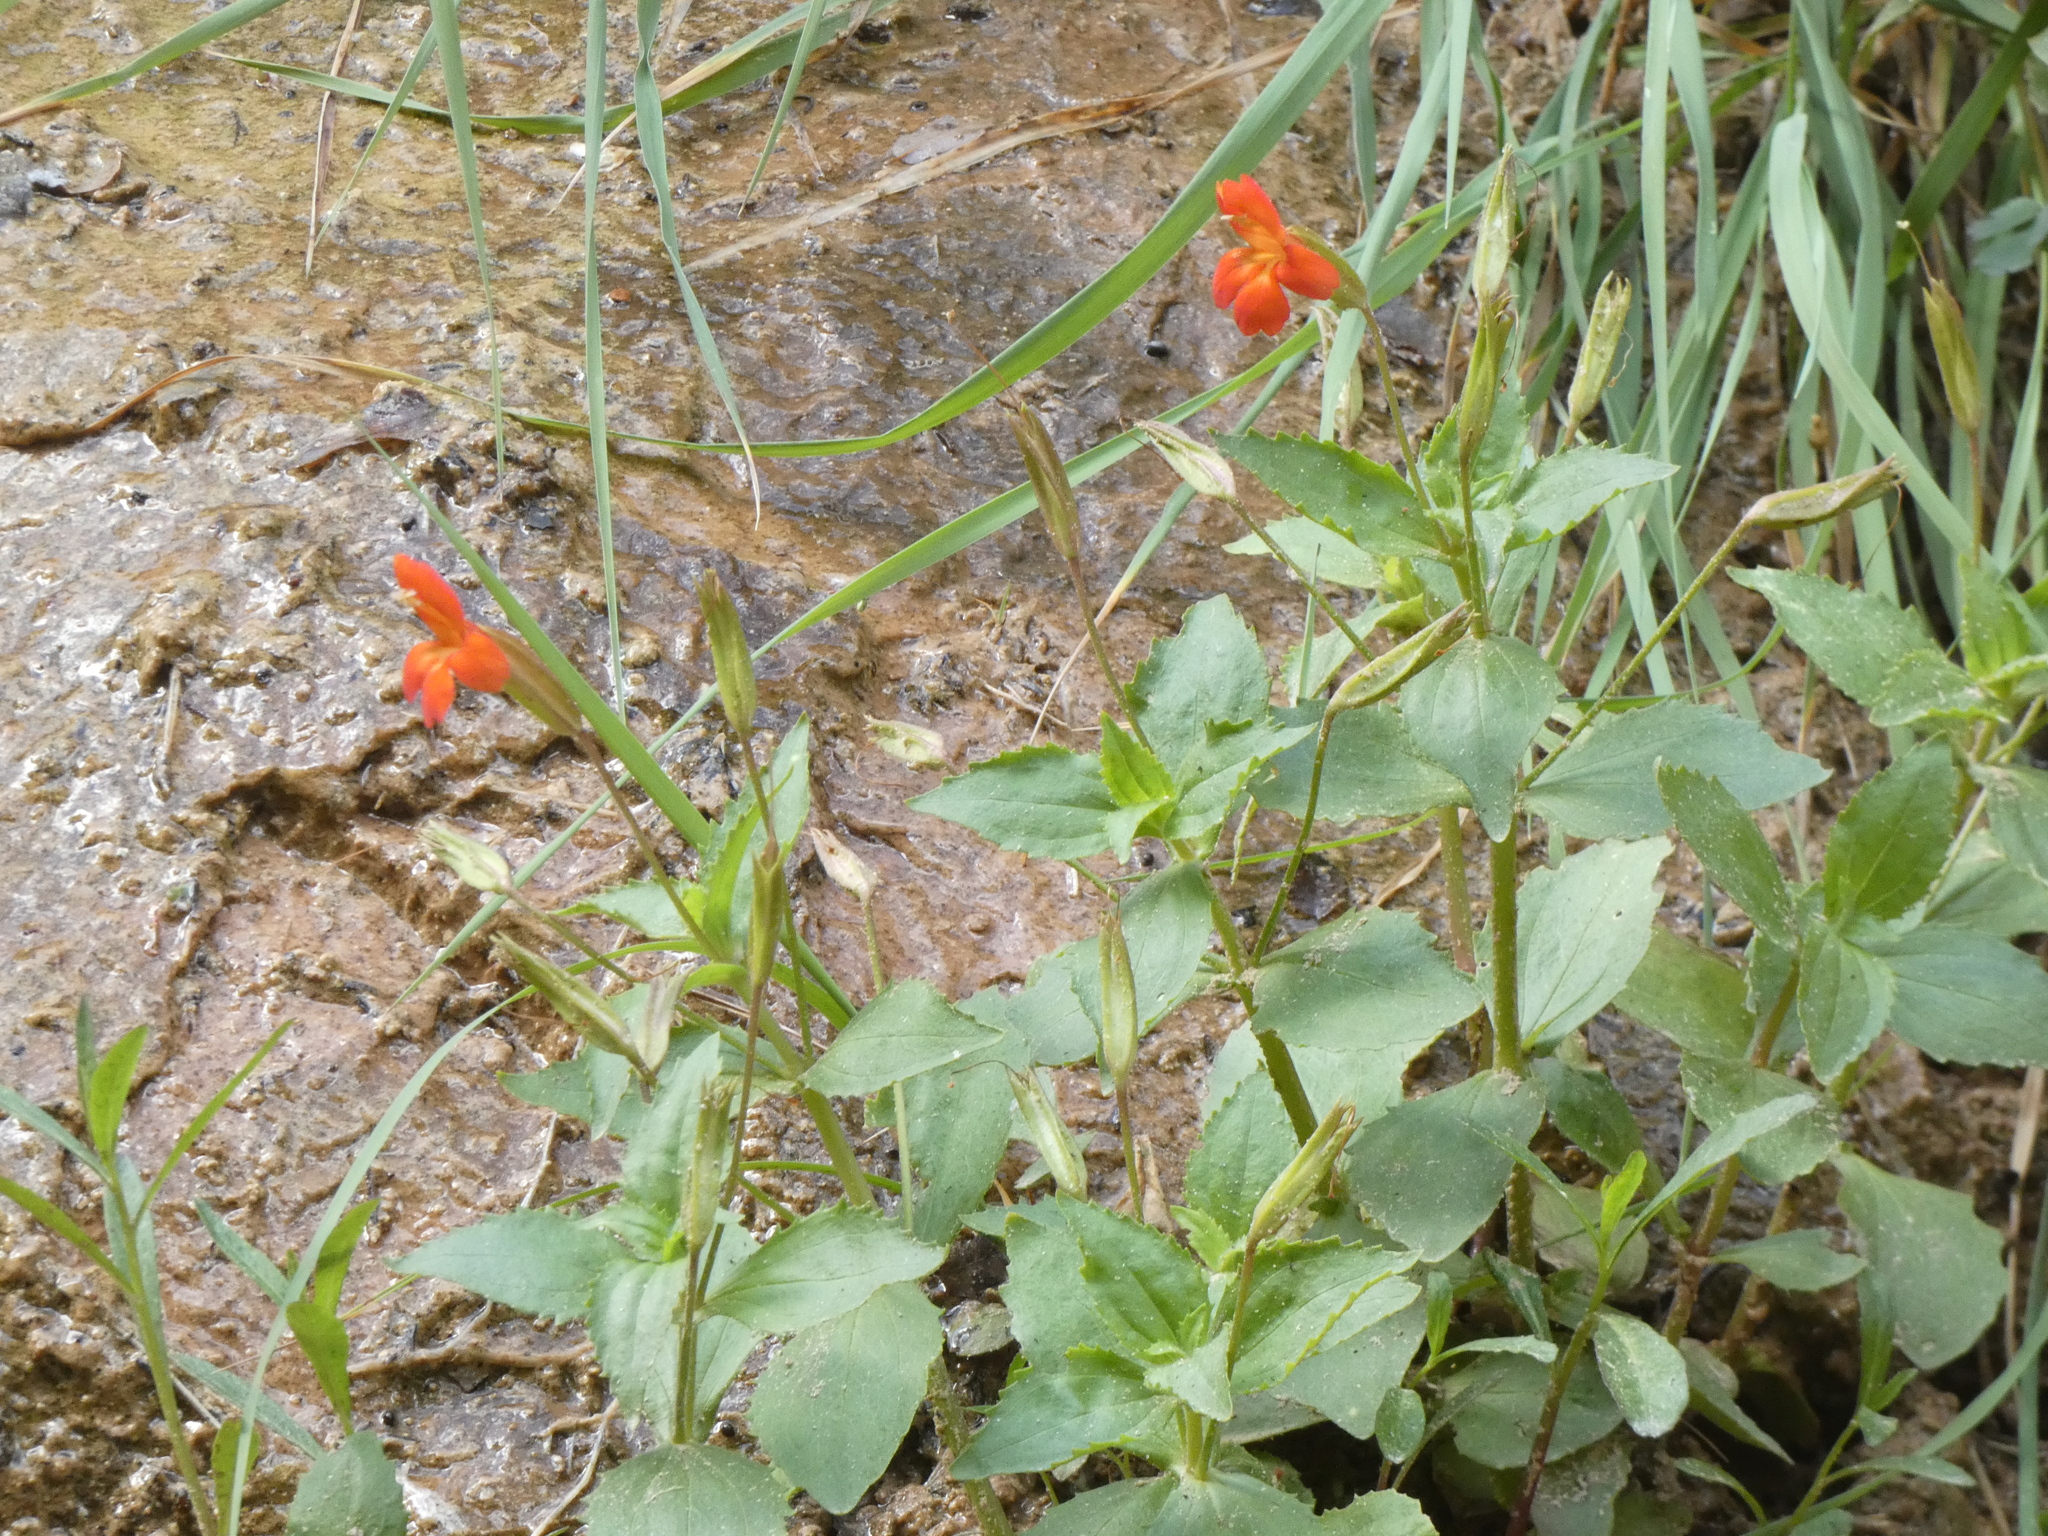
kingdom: Plantae
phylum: Tracheophyta
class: Magnoliopsida
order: Lamiales
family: Phrymaceae
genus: Erythranthe
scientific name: Erythranthe verbenacea
